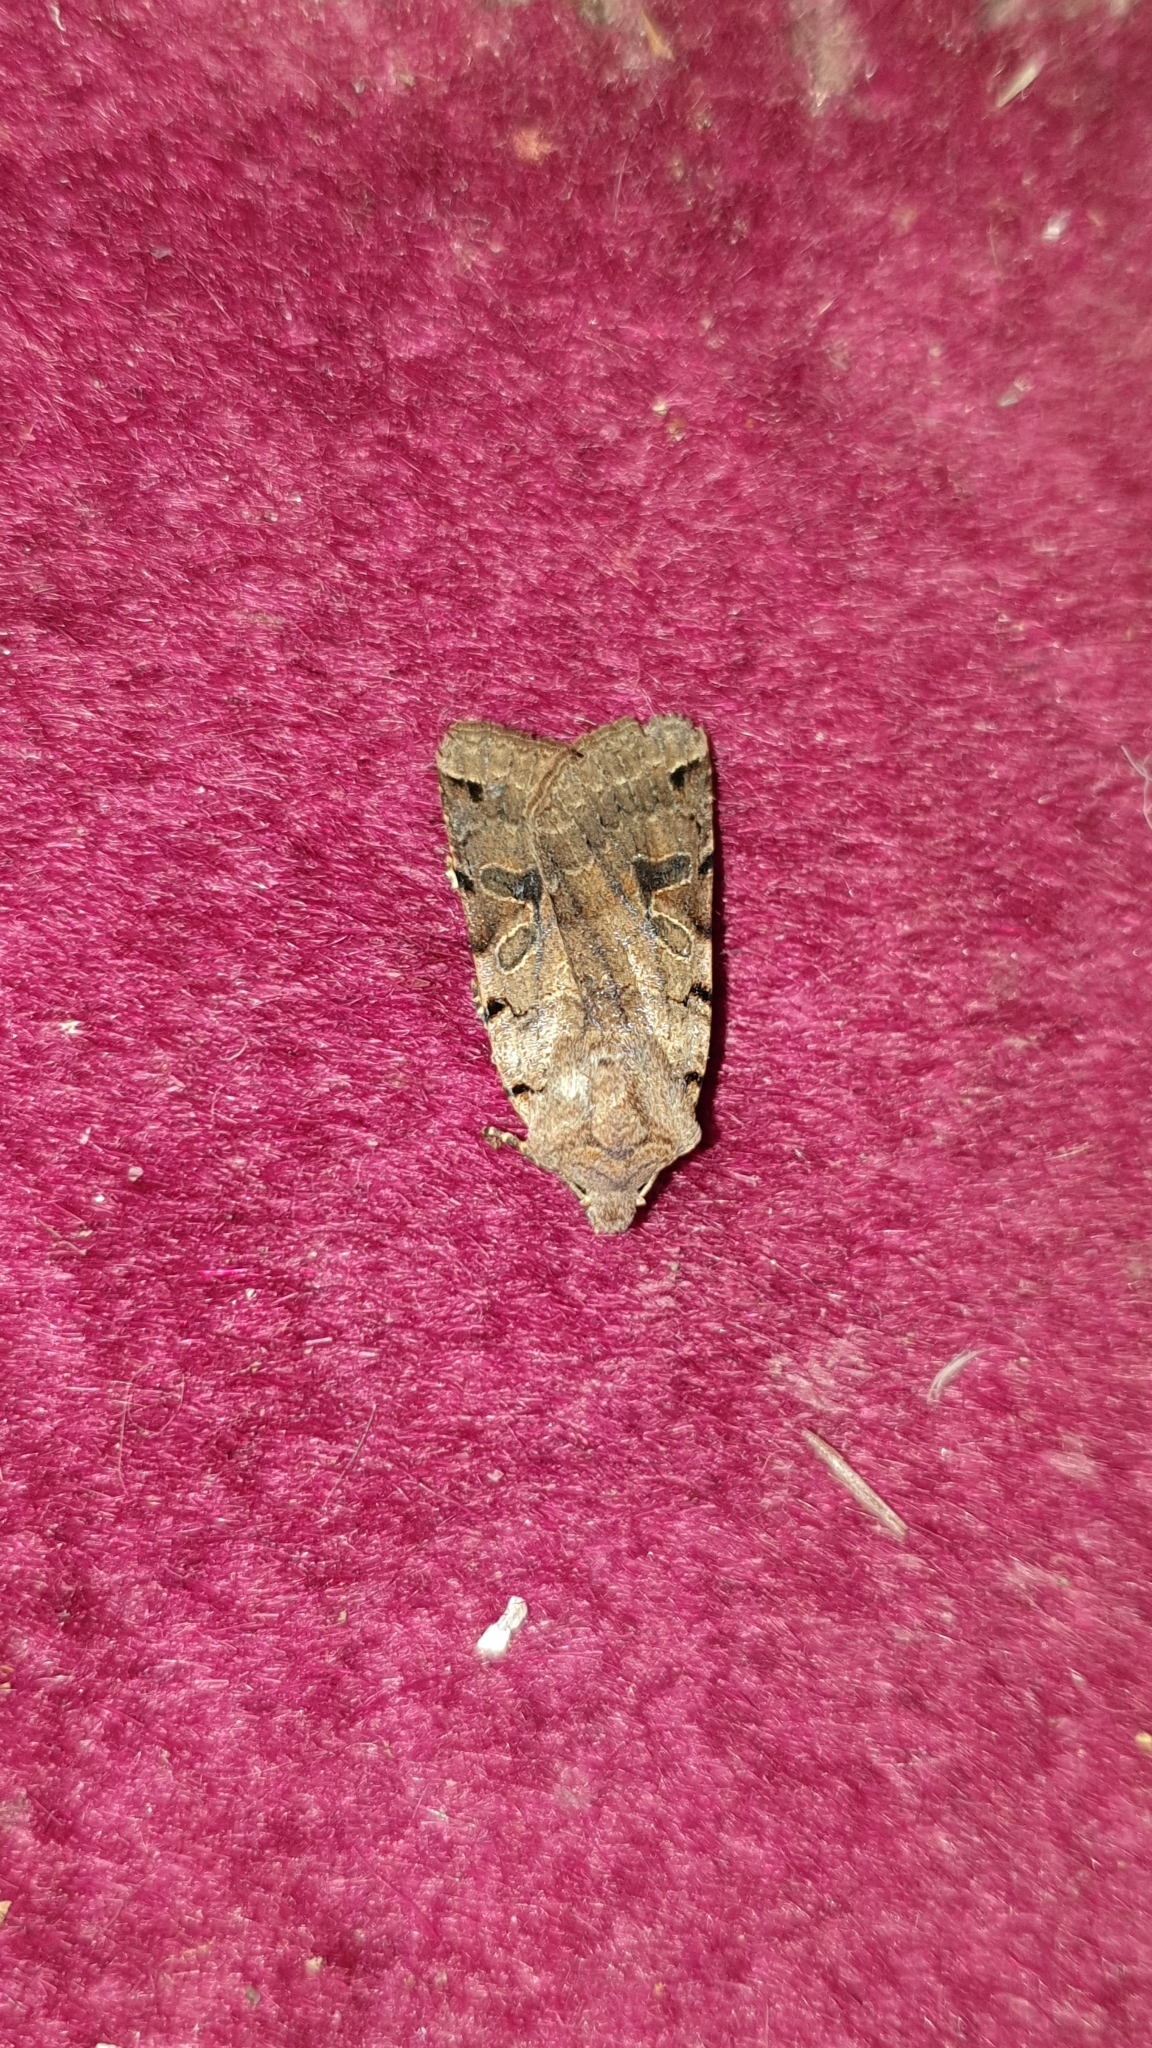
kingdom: Animalia
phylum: Arthropoda
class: Insecta
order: Lepidoptera
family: Noctuidae
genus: Agrochola
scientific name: Agrochola litura
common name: Brown-spot pinion
